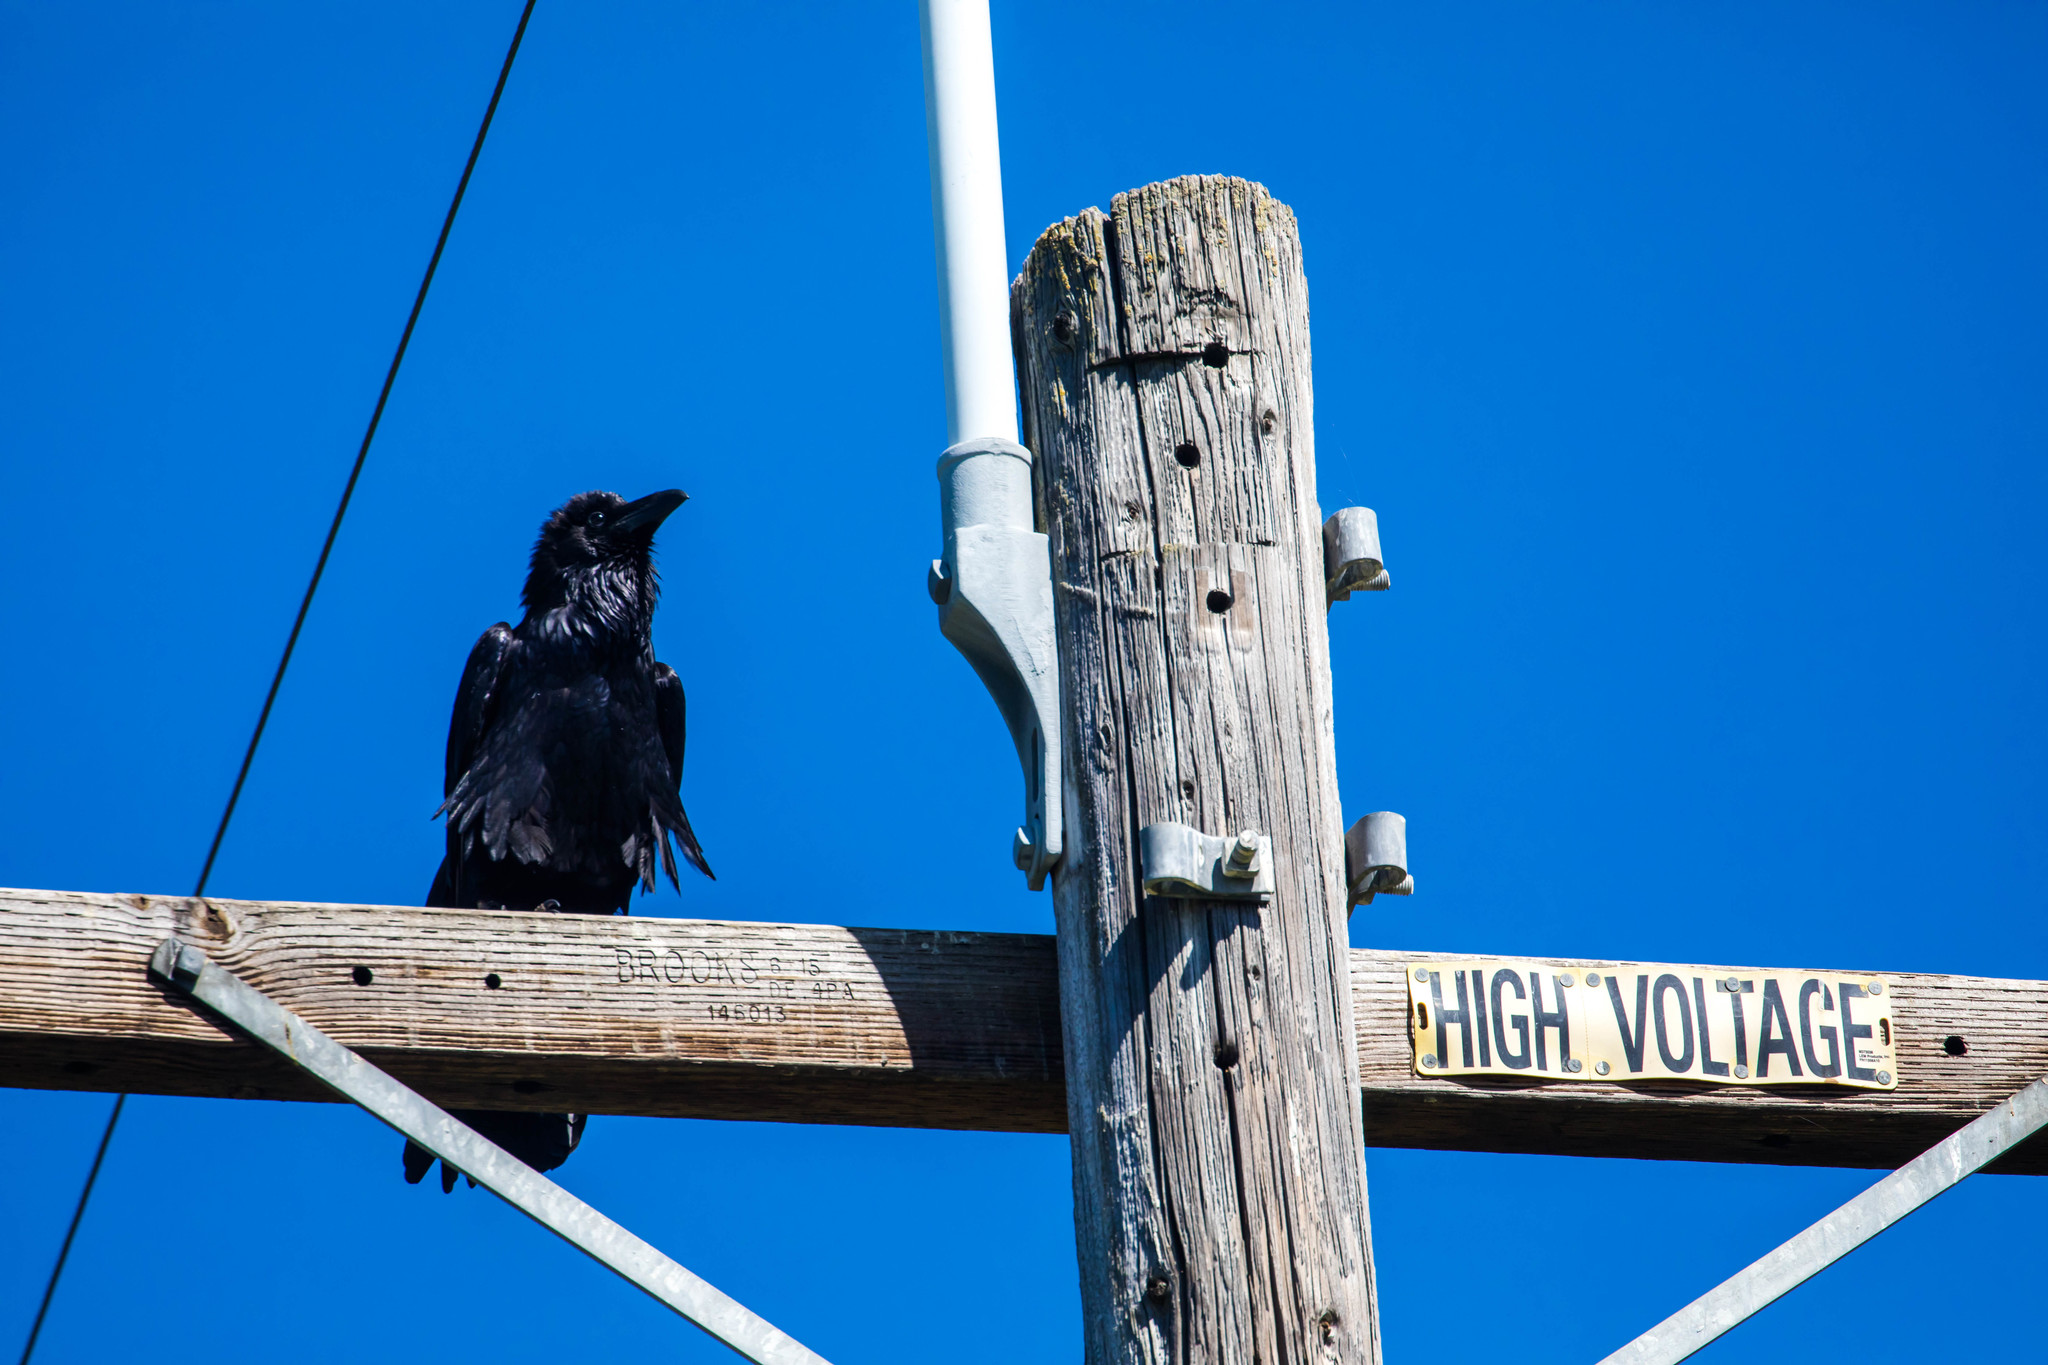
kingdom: Animalia
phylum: Chordata
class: Aves
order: Passeriformes
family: Corvidae
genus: Corvus
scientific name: Corvus corax
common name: Common raven
